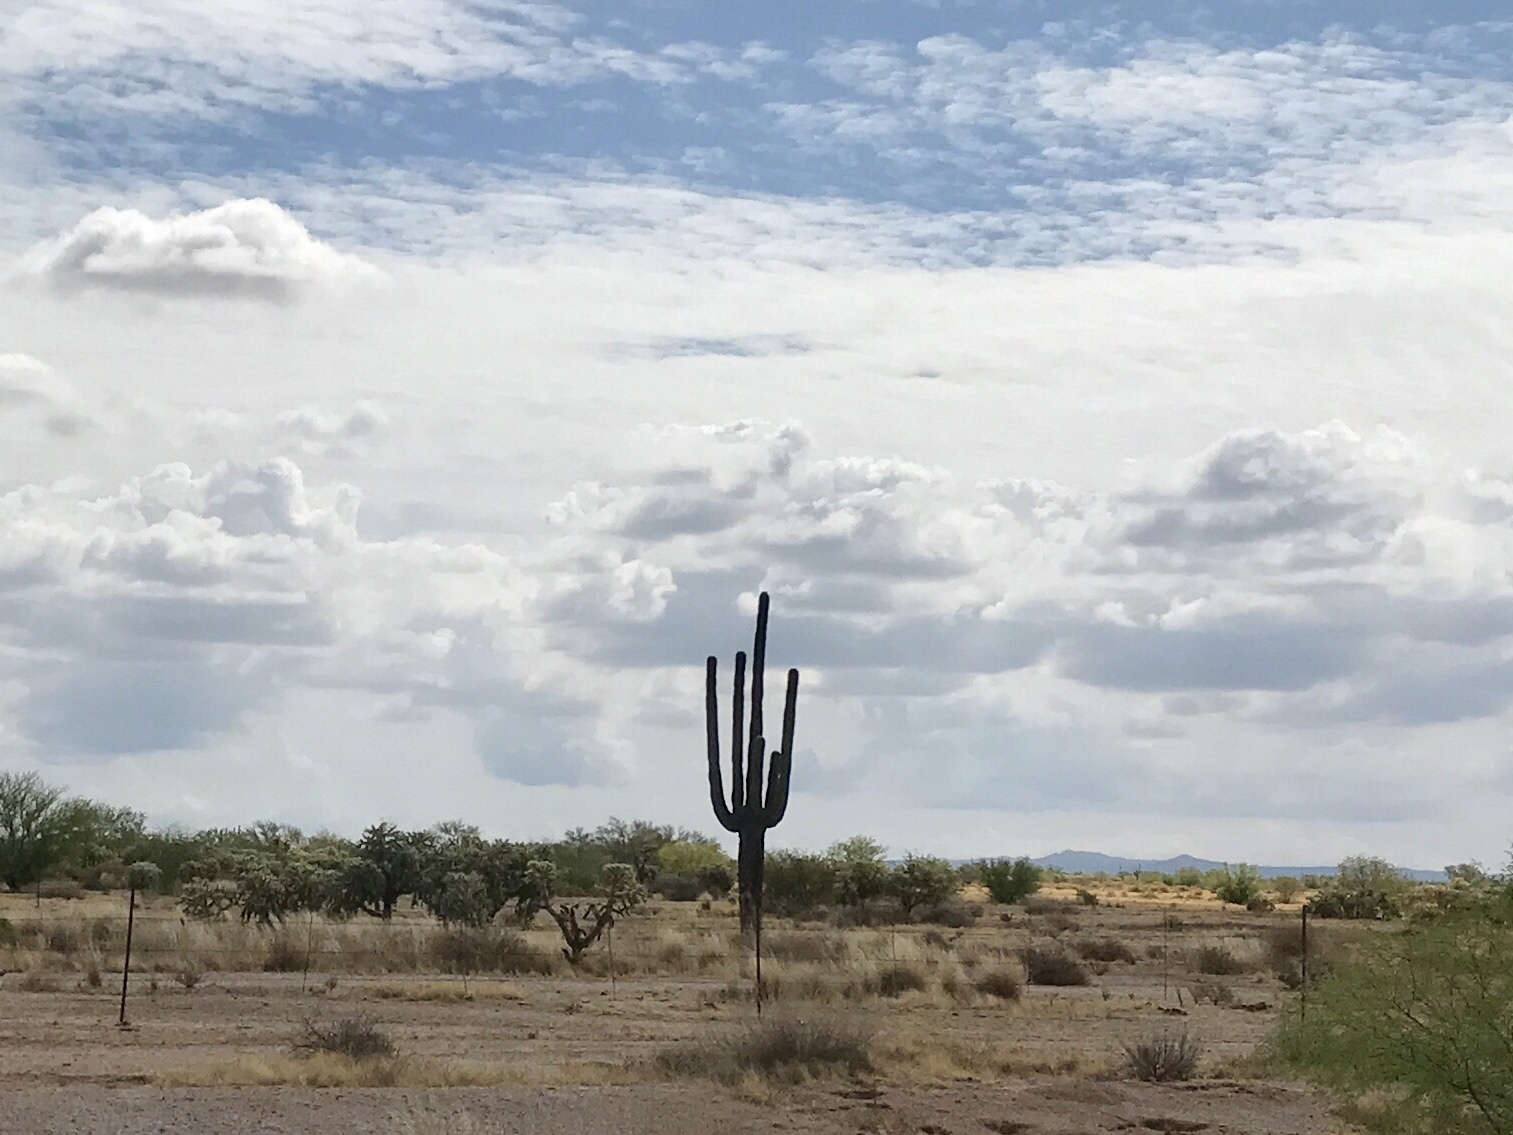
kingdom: Plantae
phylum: Tracheophyta
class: Magnoliopsida
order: Caryophyllales
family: Cactaceae
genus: Carnegiea
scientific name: Carnegiea gigantea
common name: Saguaro
